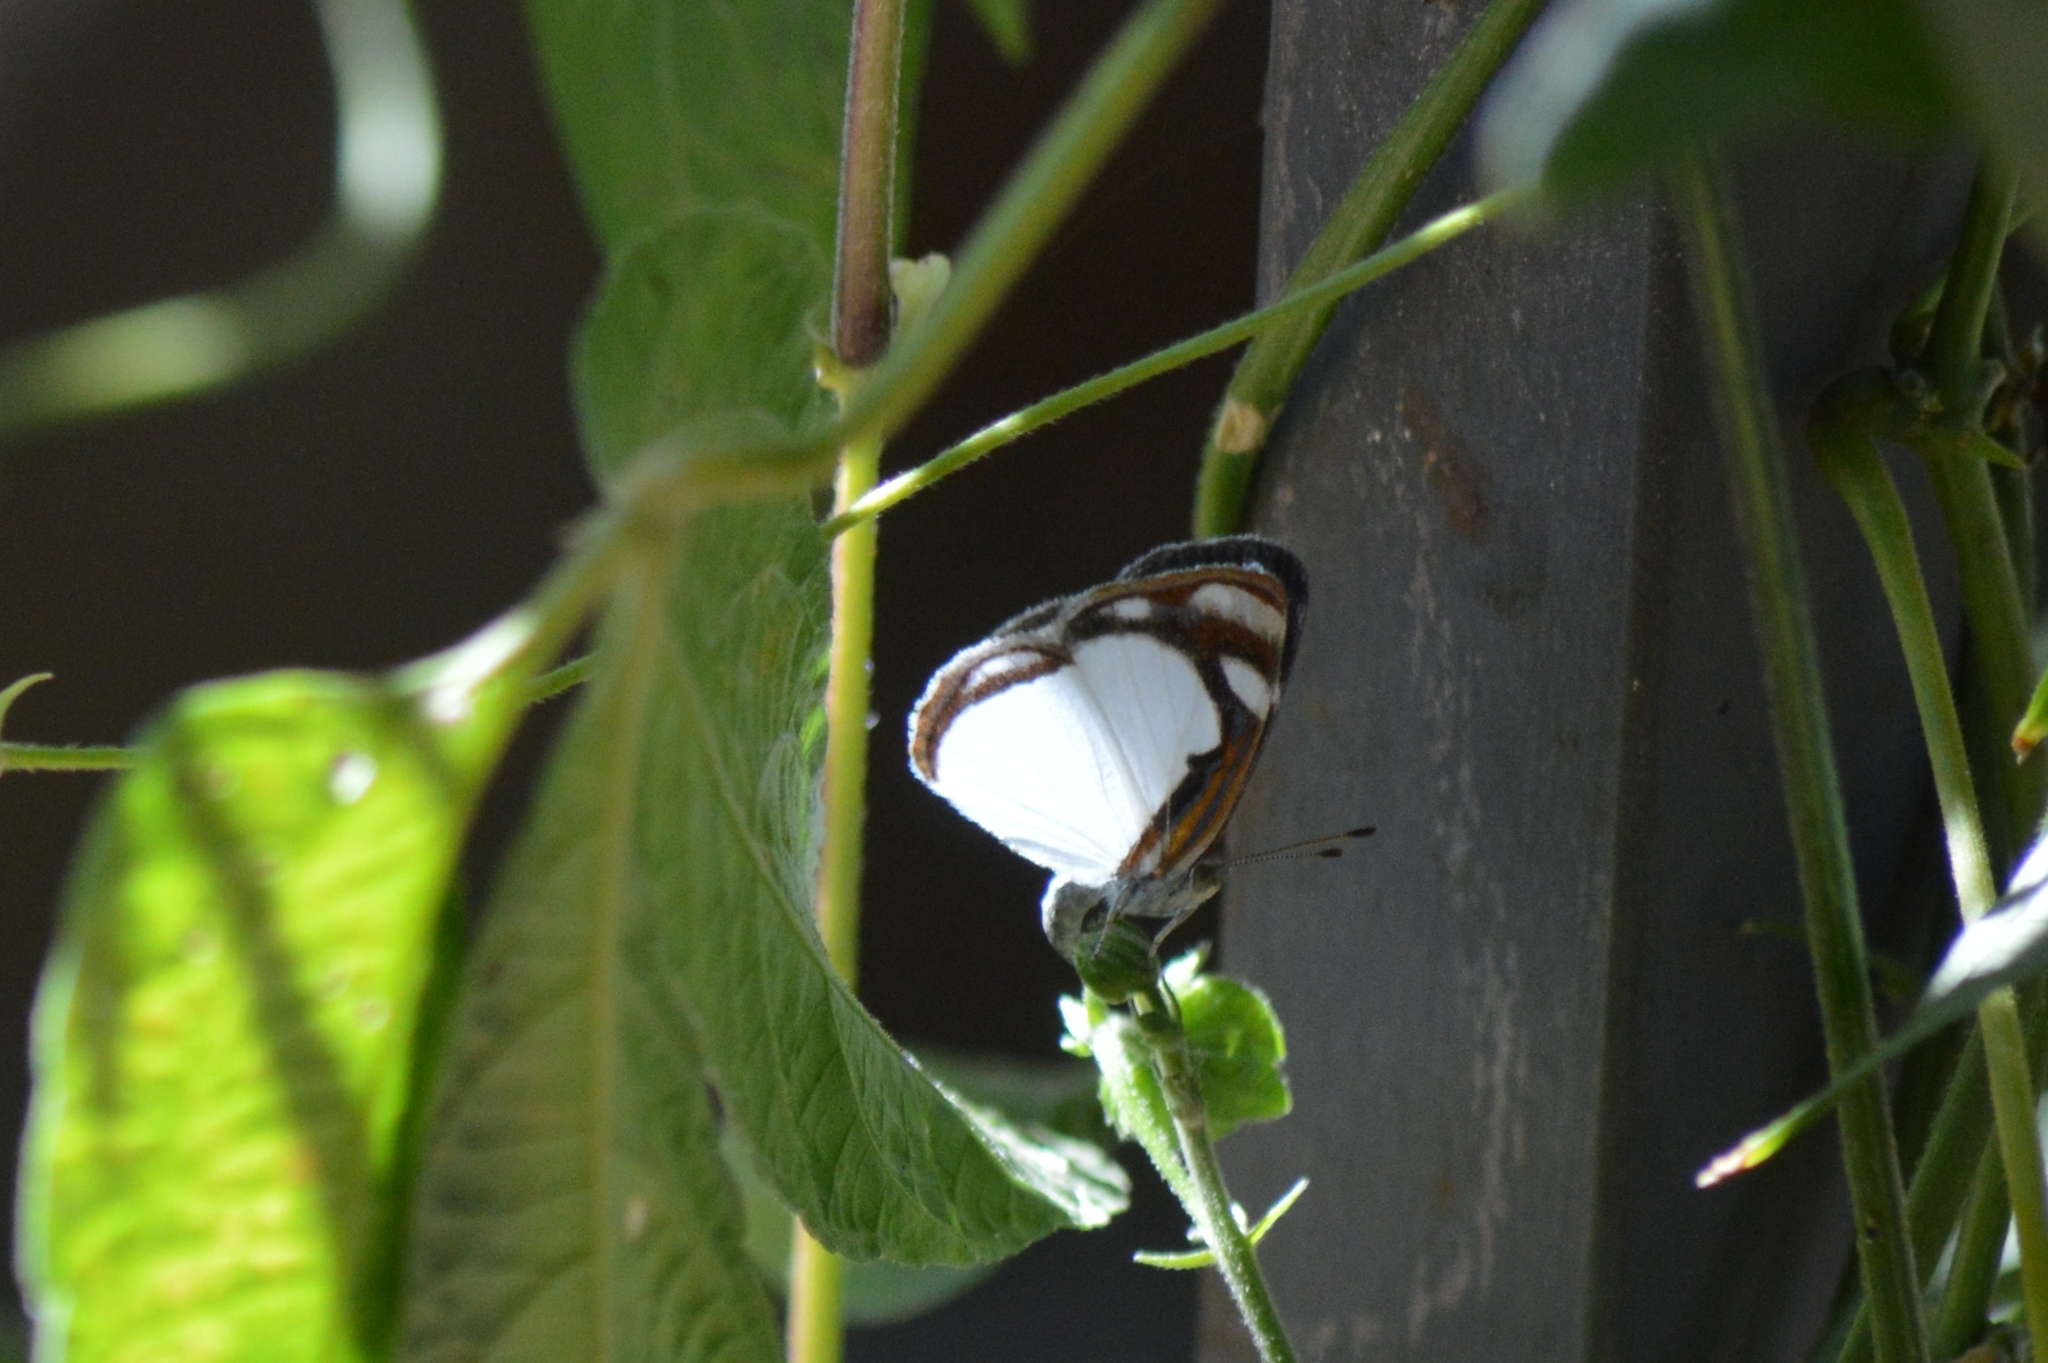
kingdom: Animalia
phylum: Arthropoda
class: Insecta
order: Lepidoptera
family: Nymphalidae
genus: Dynamine
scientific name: Dynamine agacles
